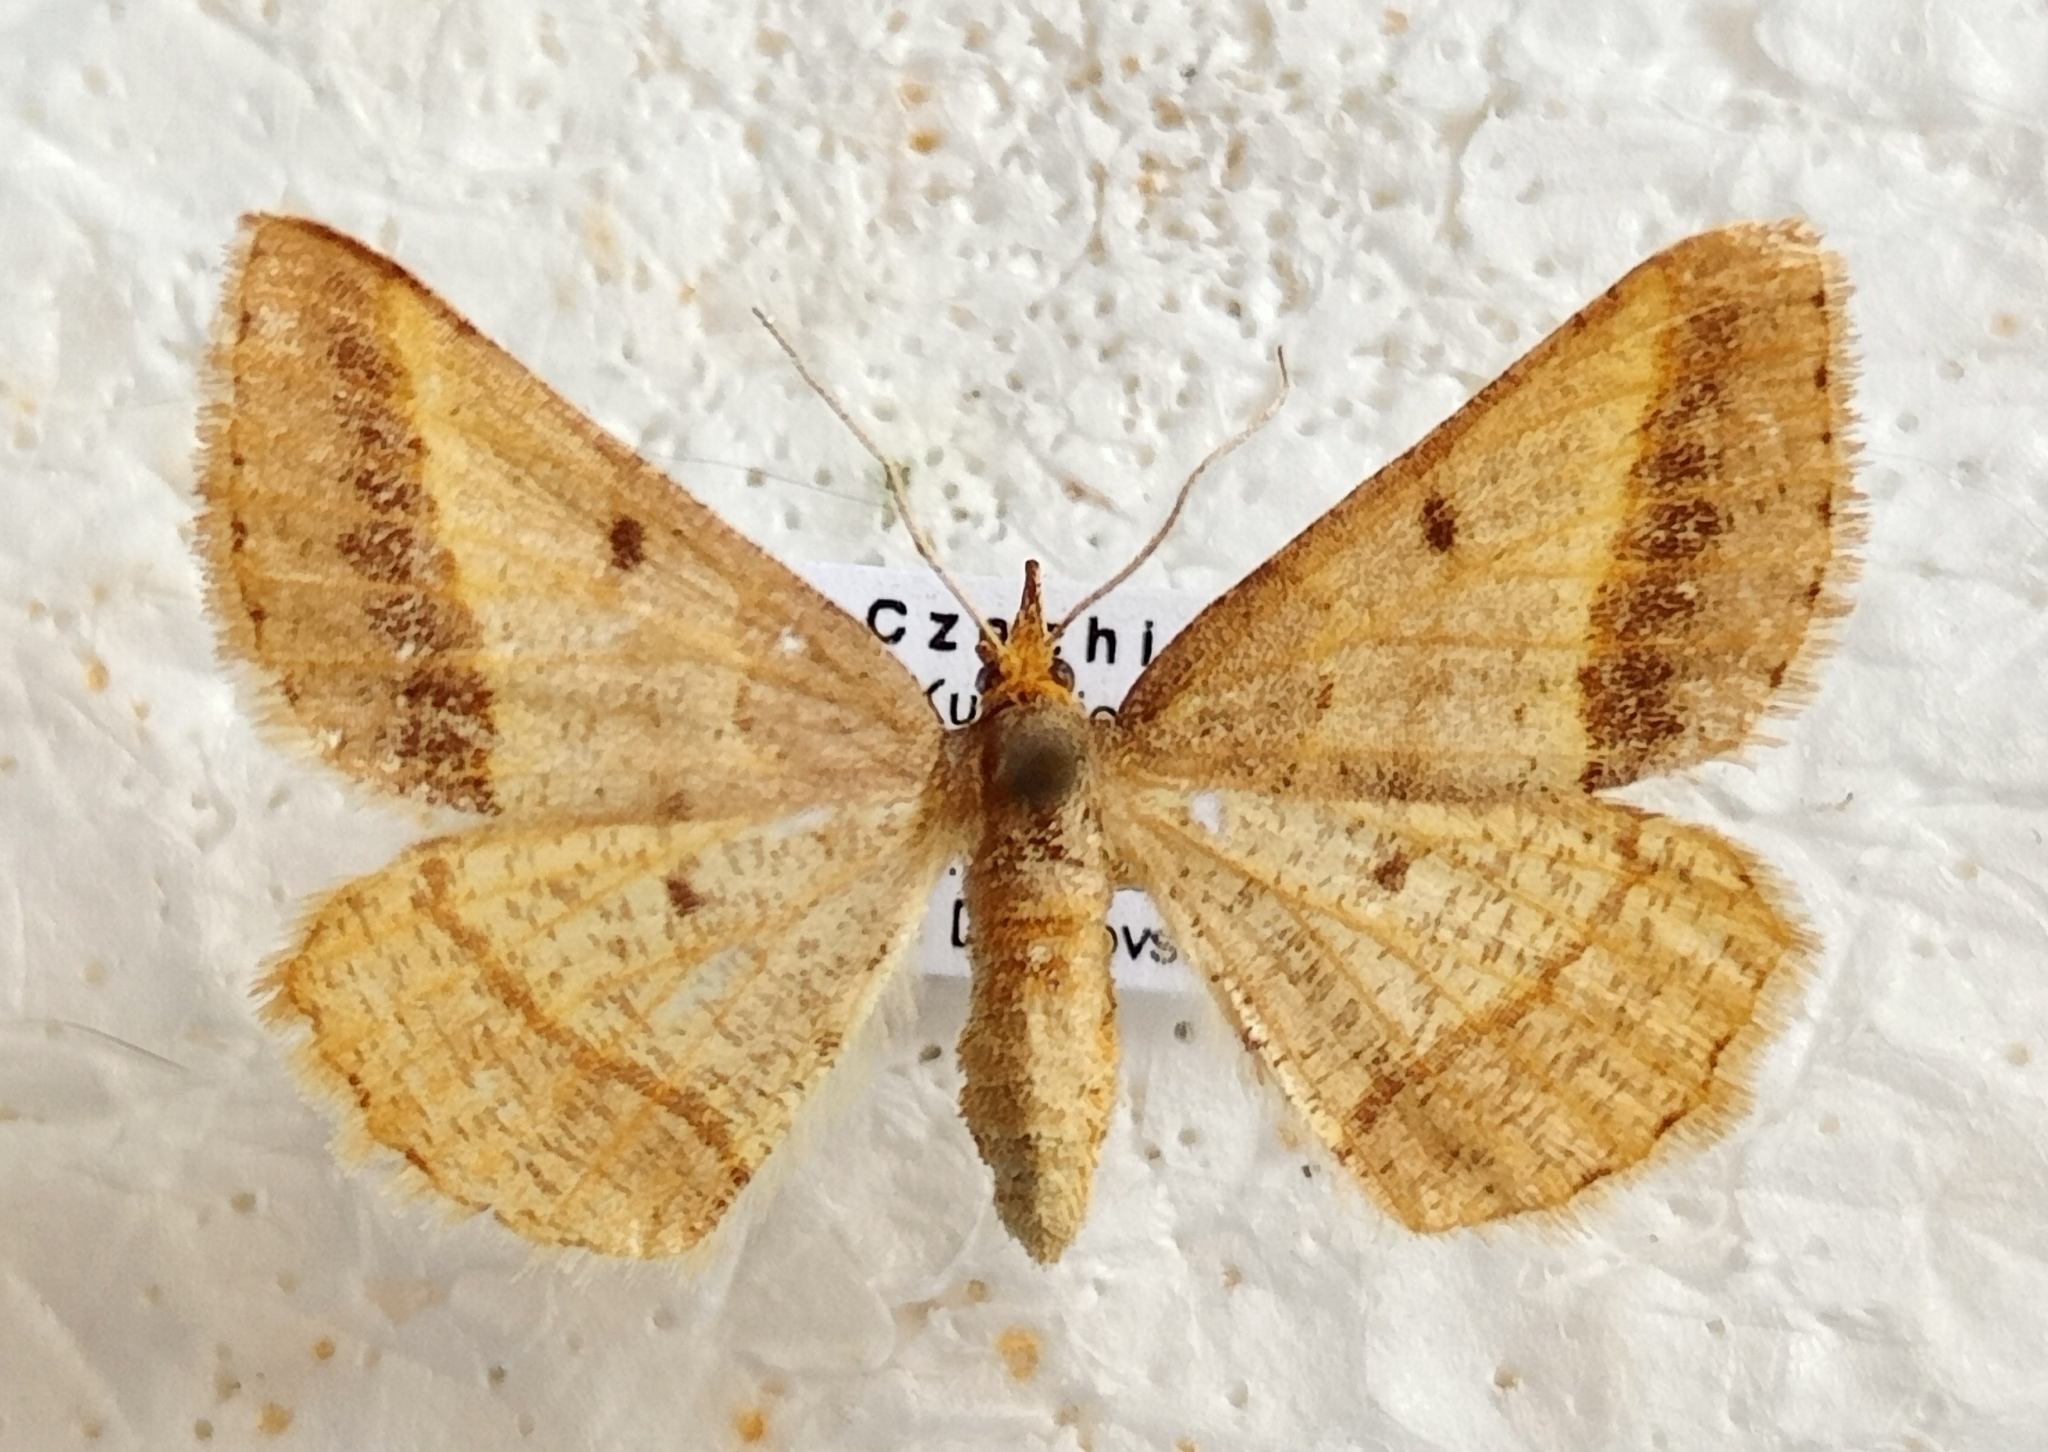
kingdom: Animalia
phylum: Arthropoda
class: Insecta
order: Lepidoptera
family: Geometridae
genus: Tephrina
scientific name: Tephrina arenacearia
